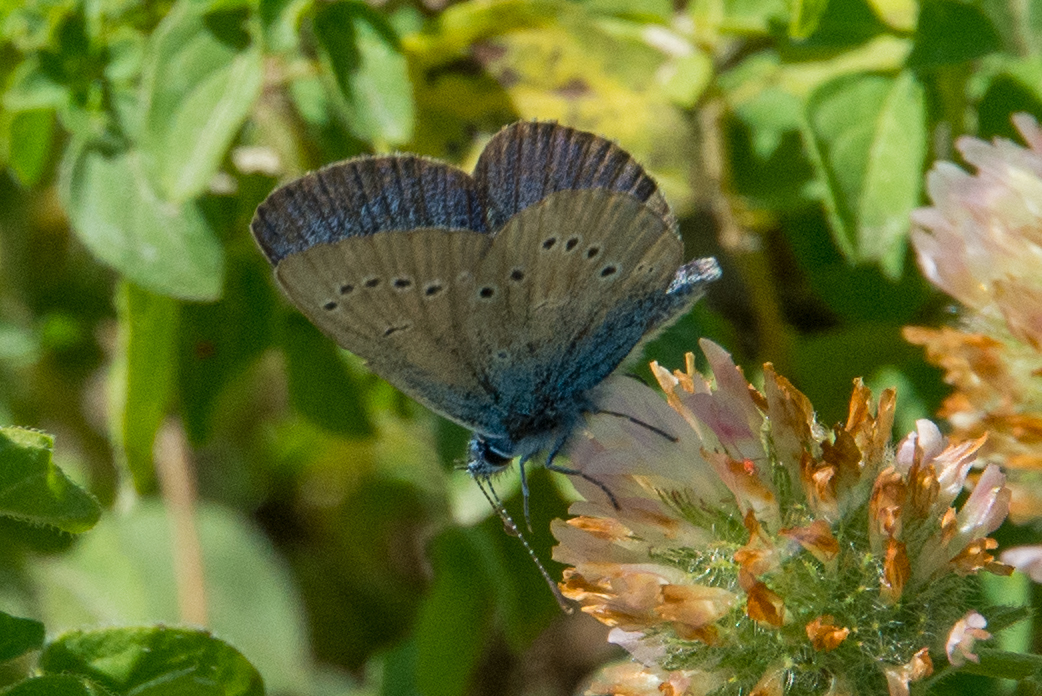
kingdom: Animalia
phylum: Arthropoda
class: Insecta
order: Lepidoptera
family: Lycaenidae
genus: Cyaniris
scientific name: Cyaniris semiargus
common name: Mazarine blue
